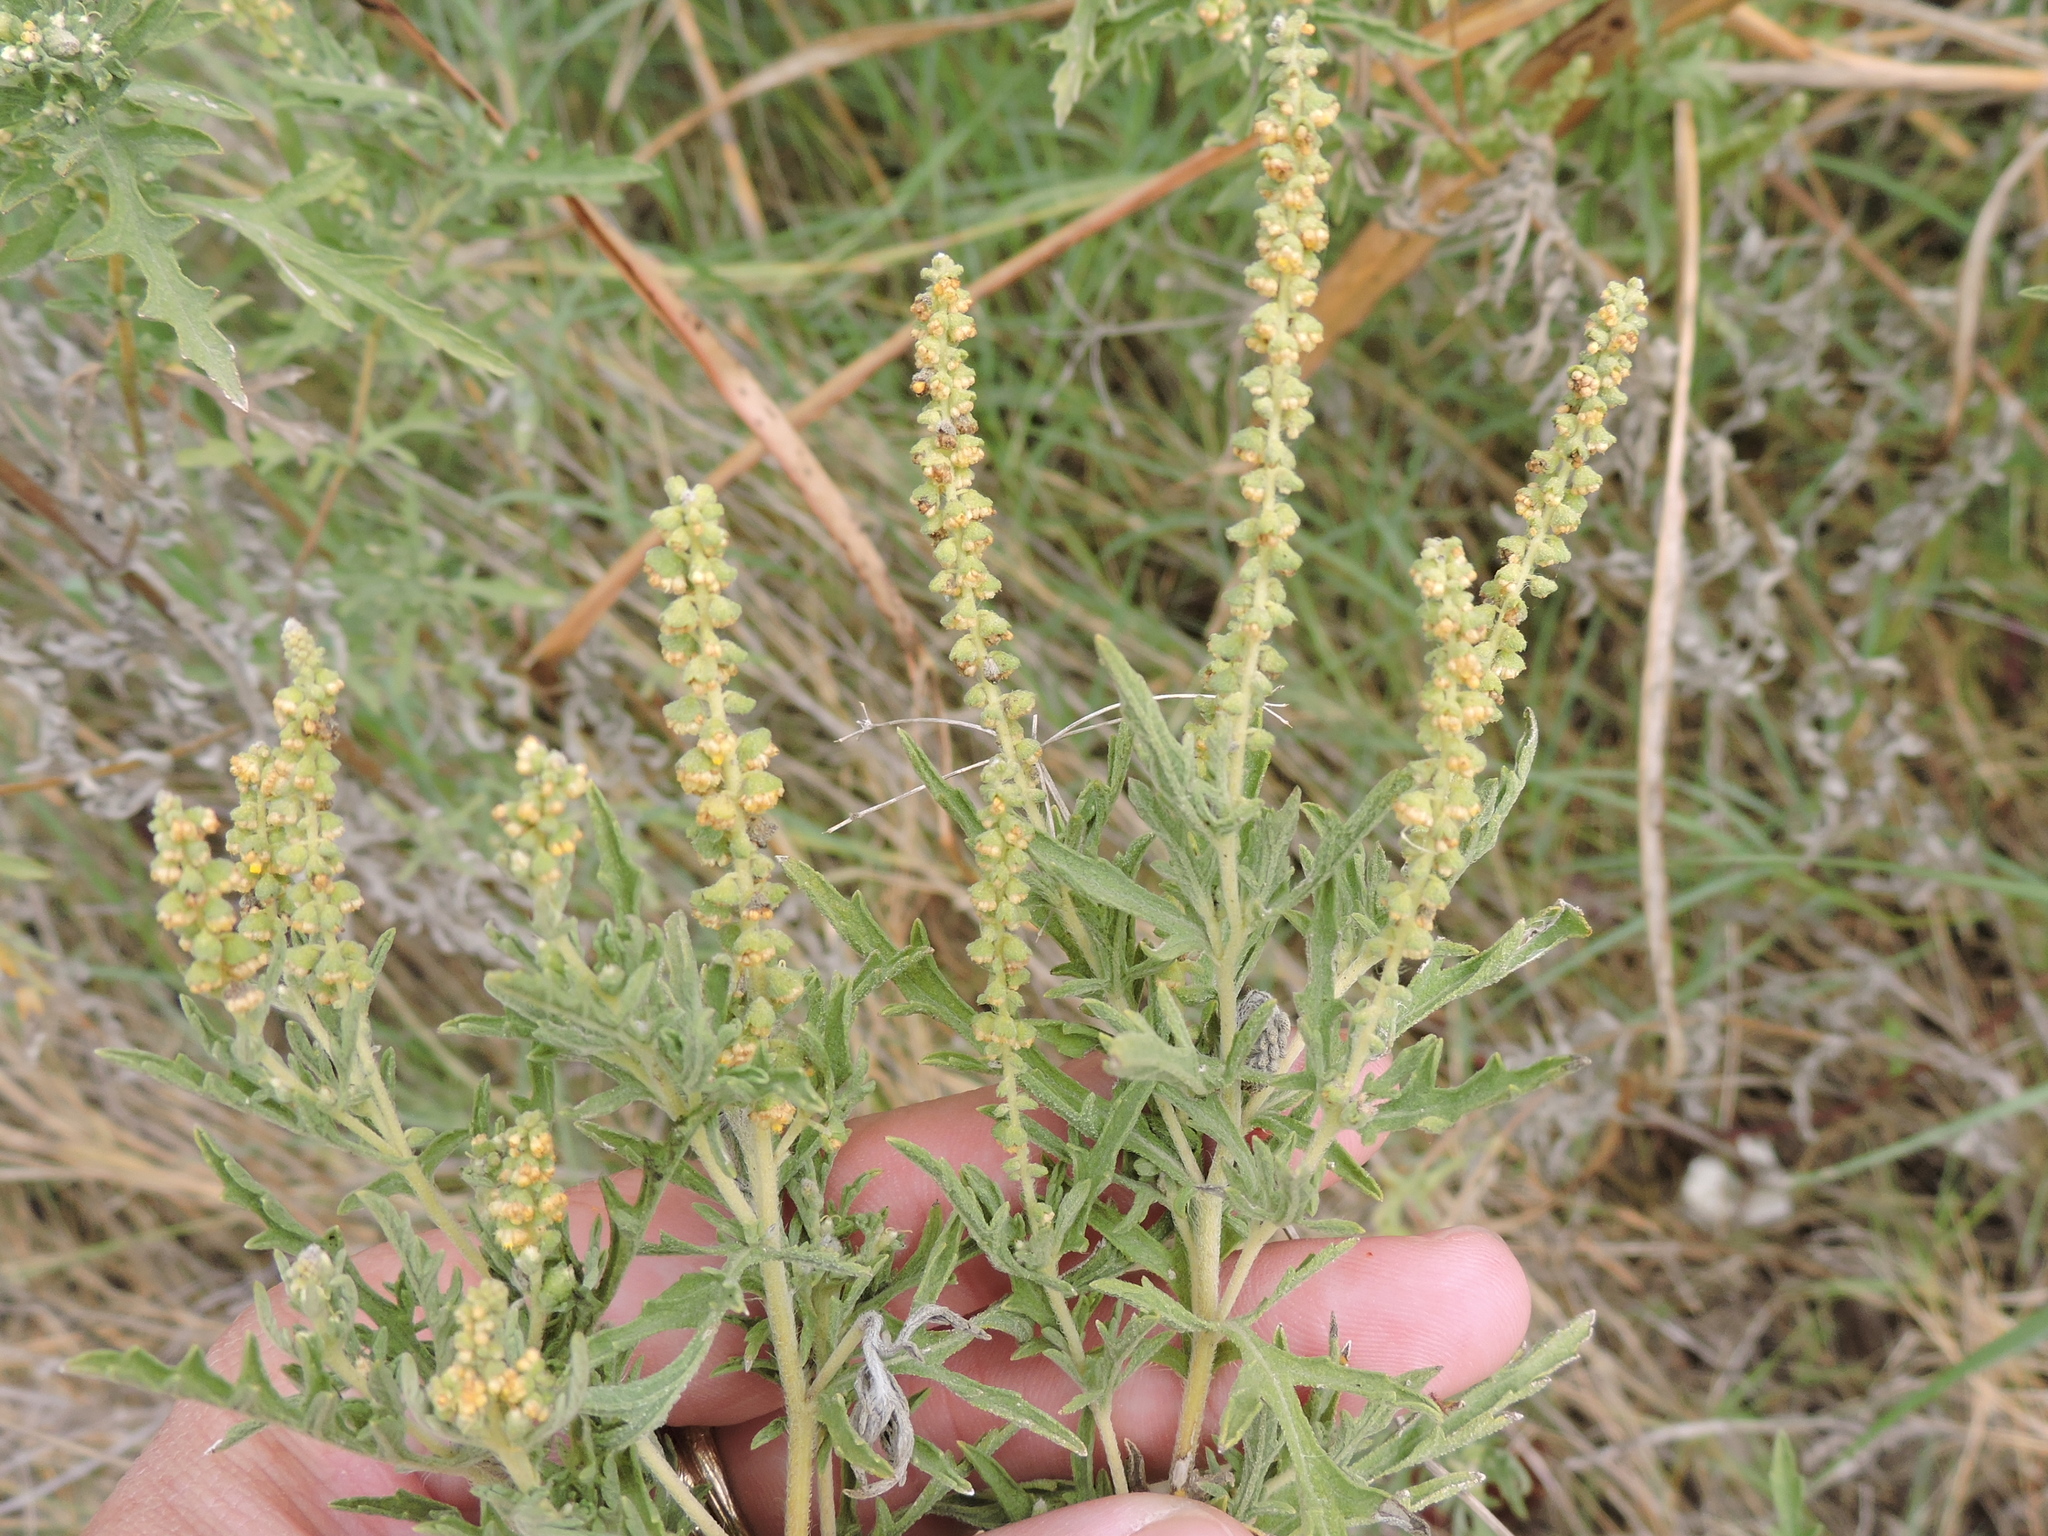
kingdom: Plantae
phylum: Tracheophyta
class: Magnoliopsida
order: Asterales
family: Asteraceae
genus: Ambrosia
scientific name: Ambrosia psilostachya
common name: Perennial ragweed
